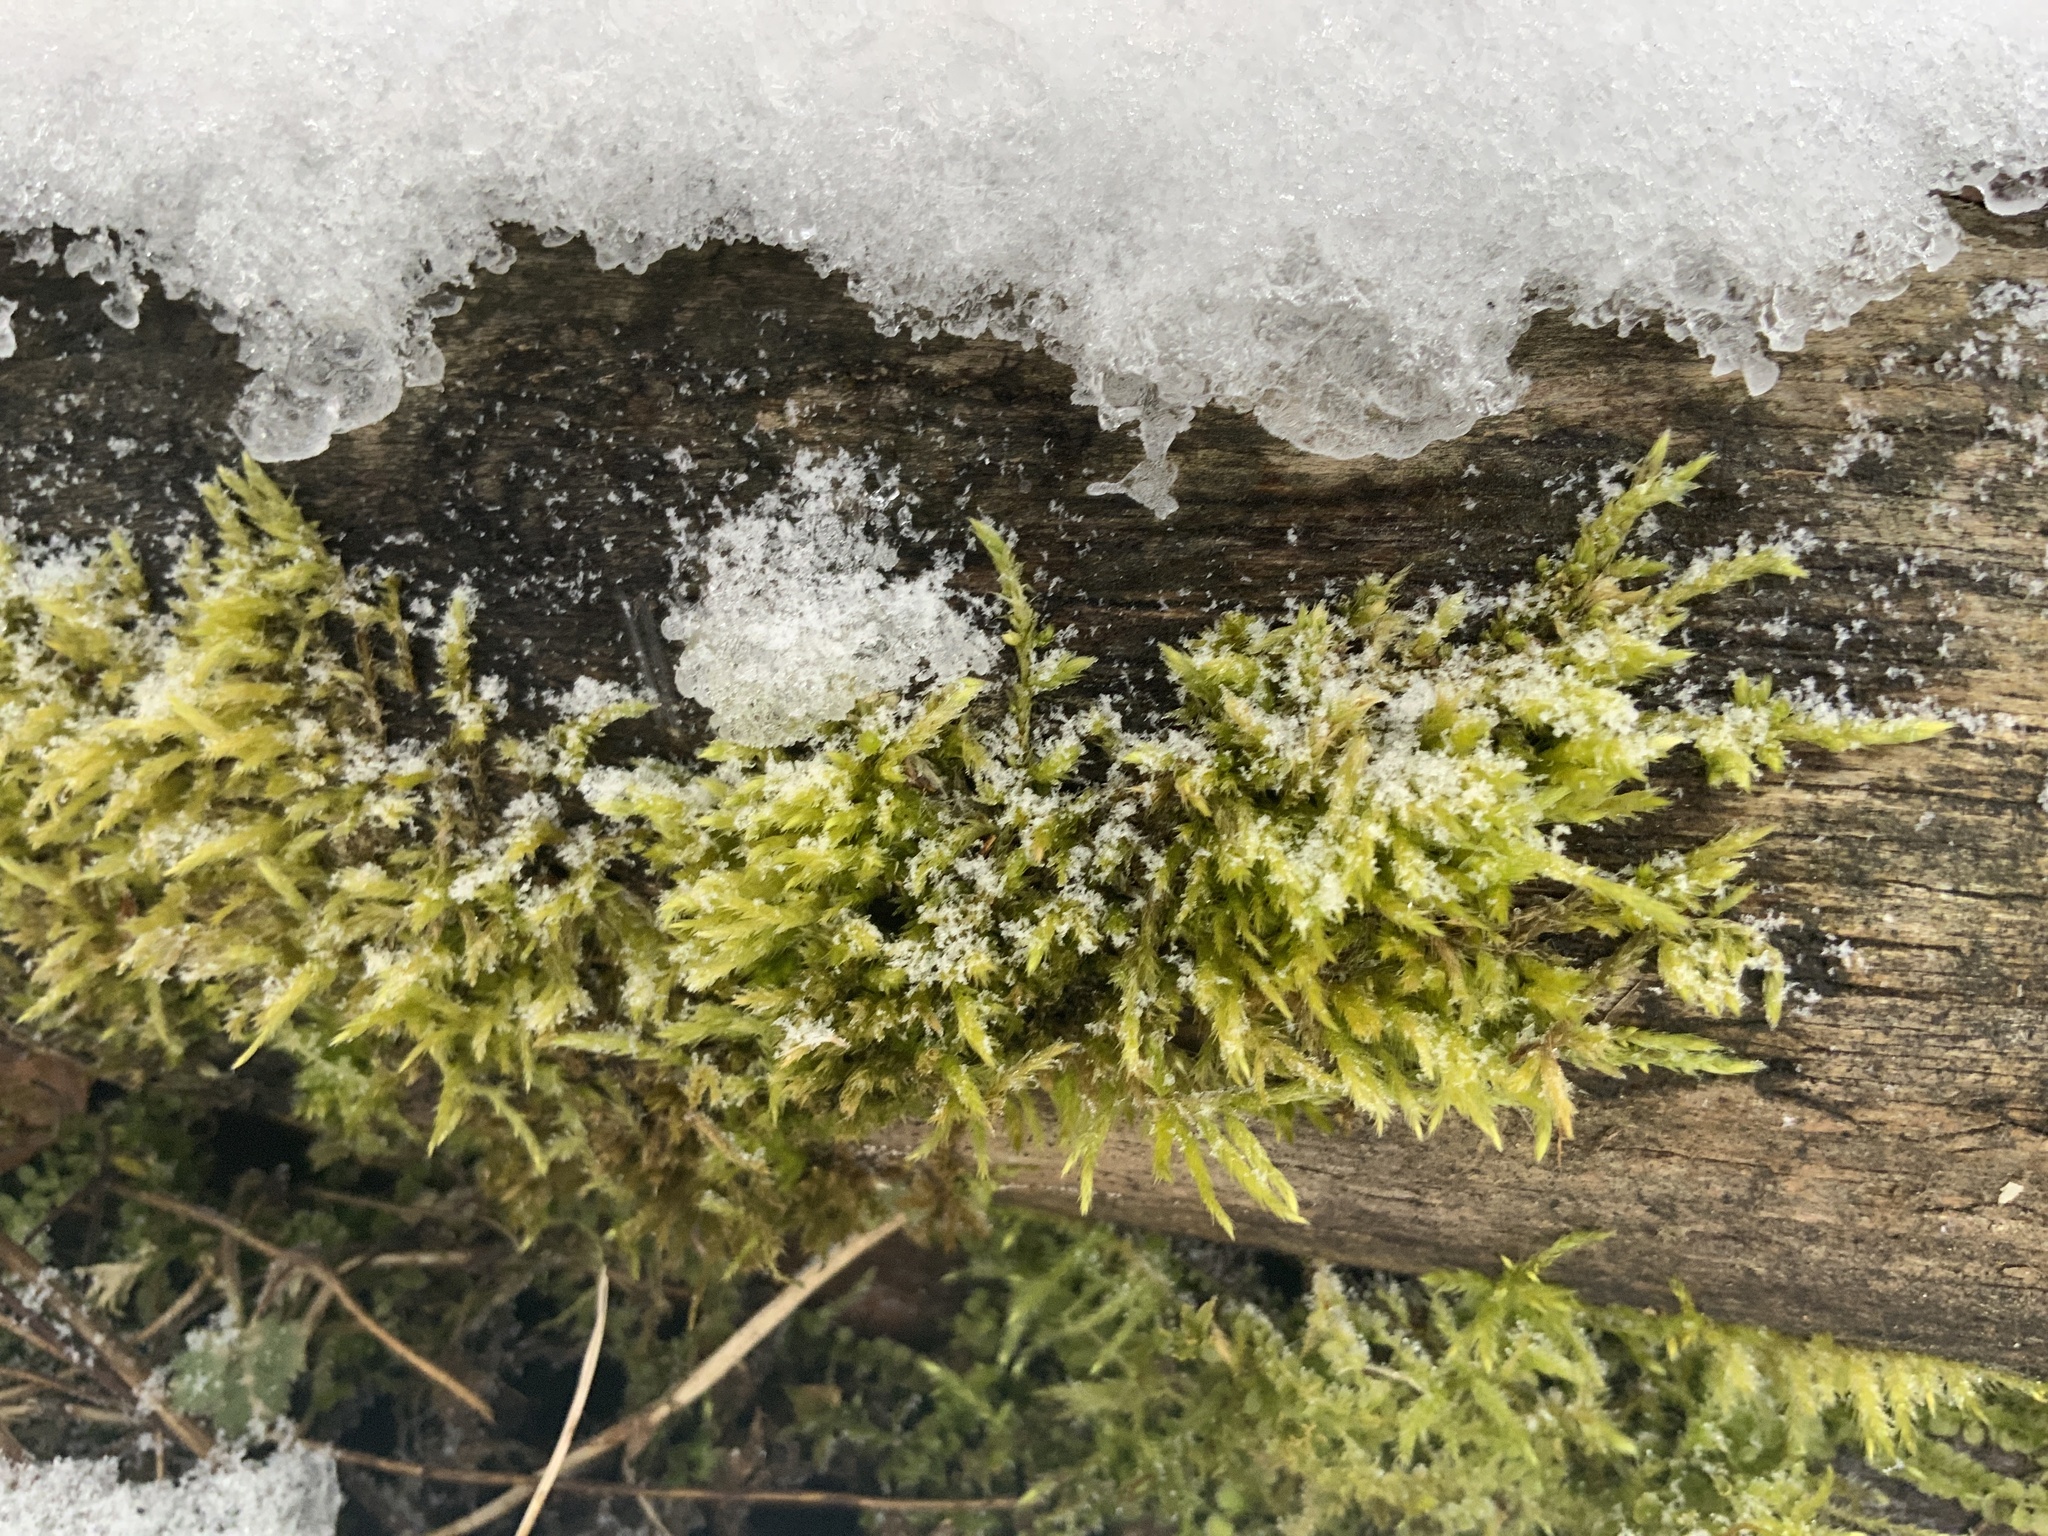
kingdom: Plantae
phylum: Bryophyta
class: Bryopsida
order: Hypnales
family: Callicladiaceae
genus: Callicladium
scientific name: Callicladium haldanianum
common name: Beautiful branch moss
